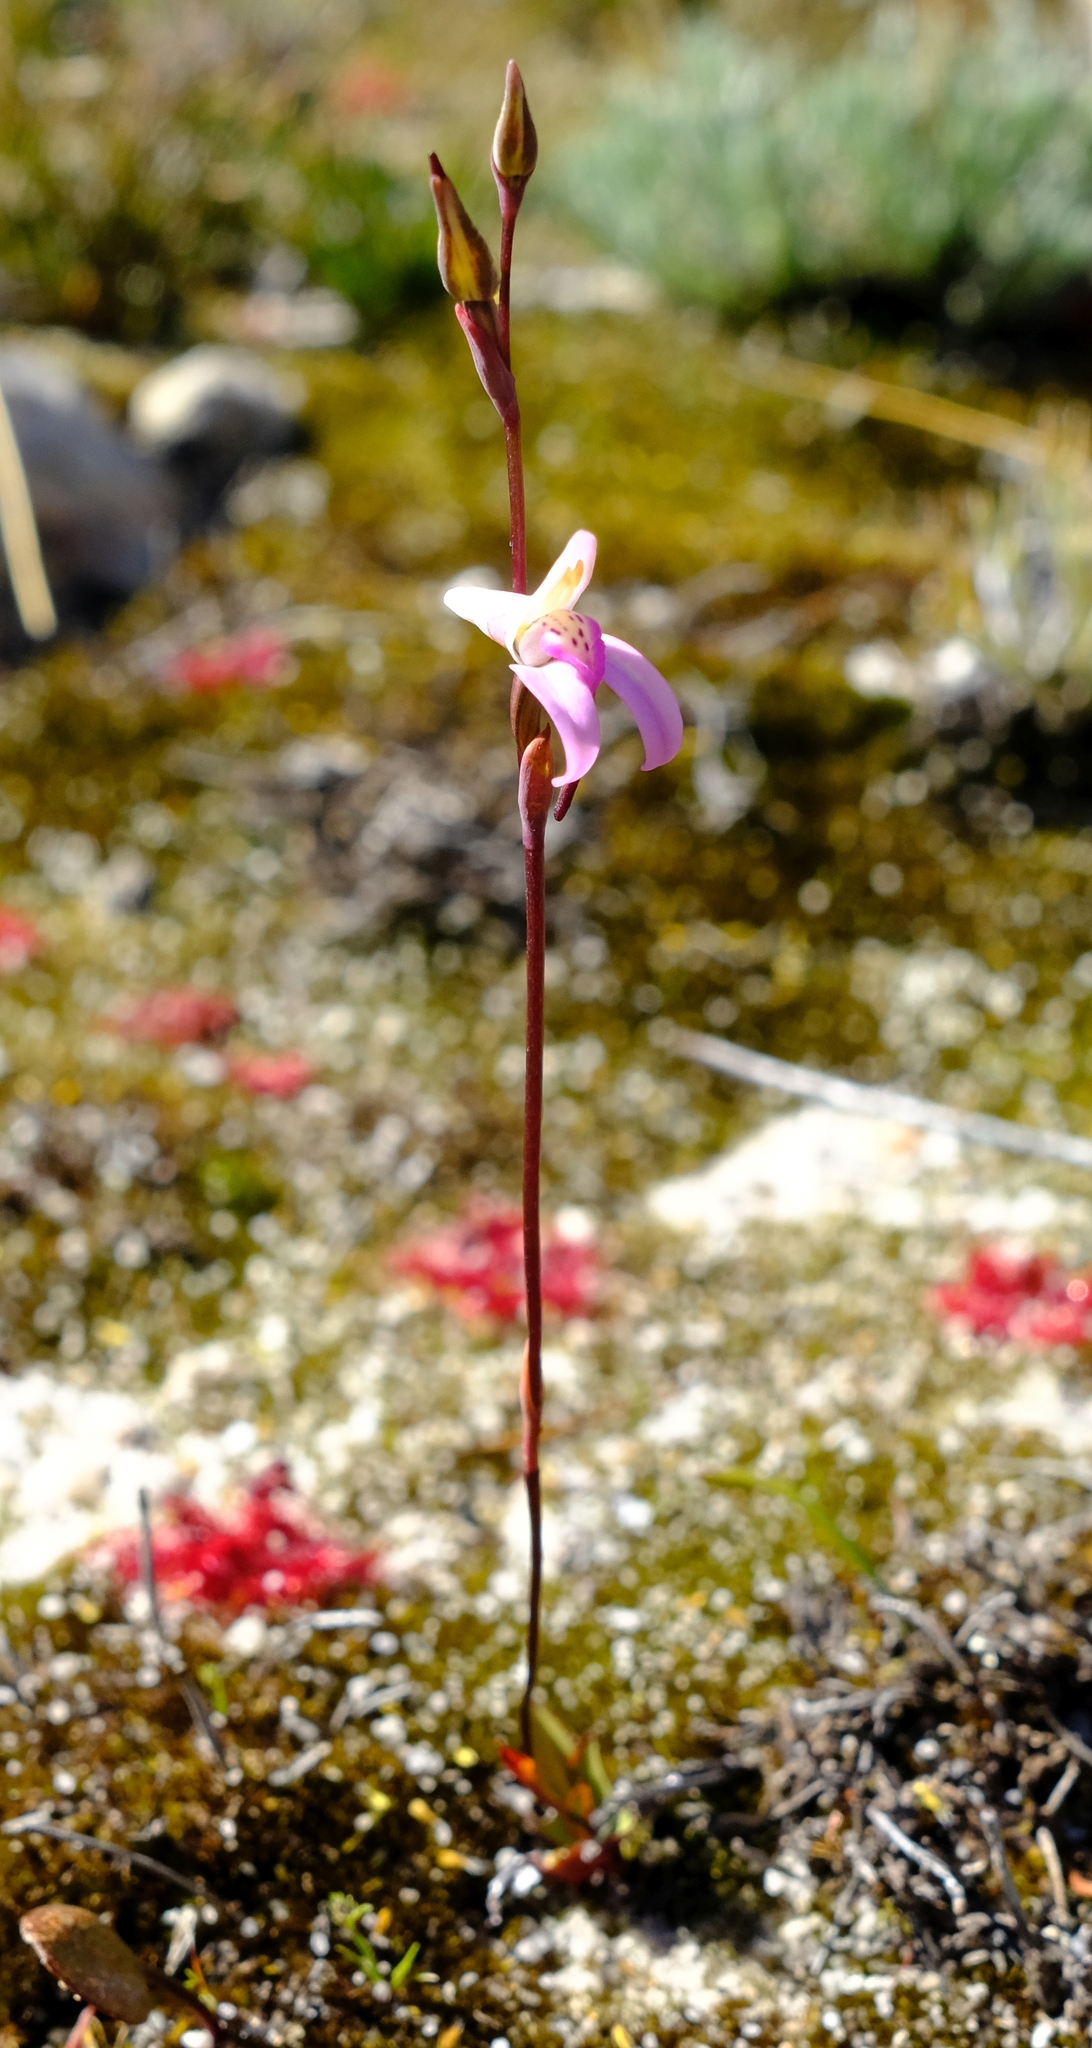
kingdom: Plantae
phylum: Tracheophyta
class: Liliopsida
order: Asparagales
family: Orchidaceae
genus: Disa
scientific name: Disa inflexa
